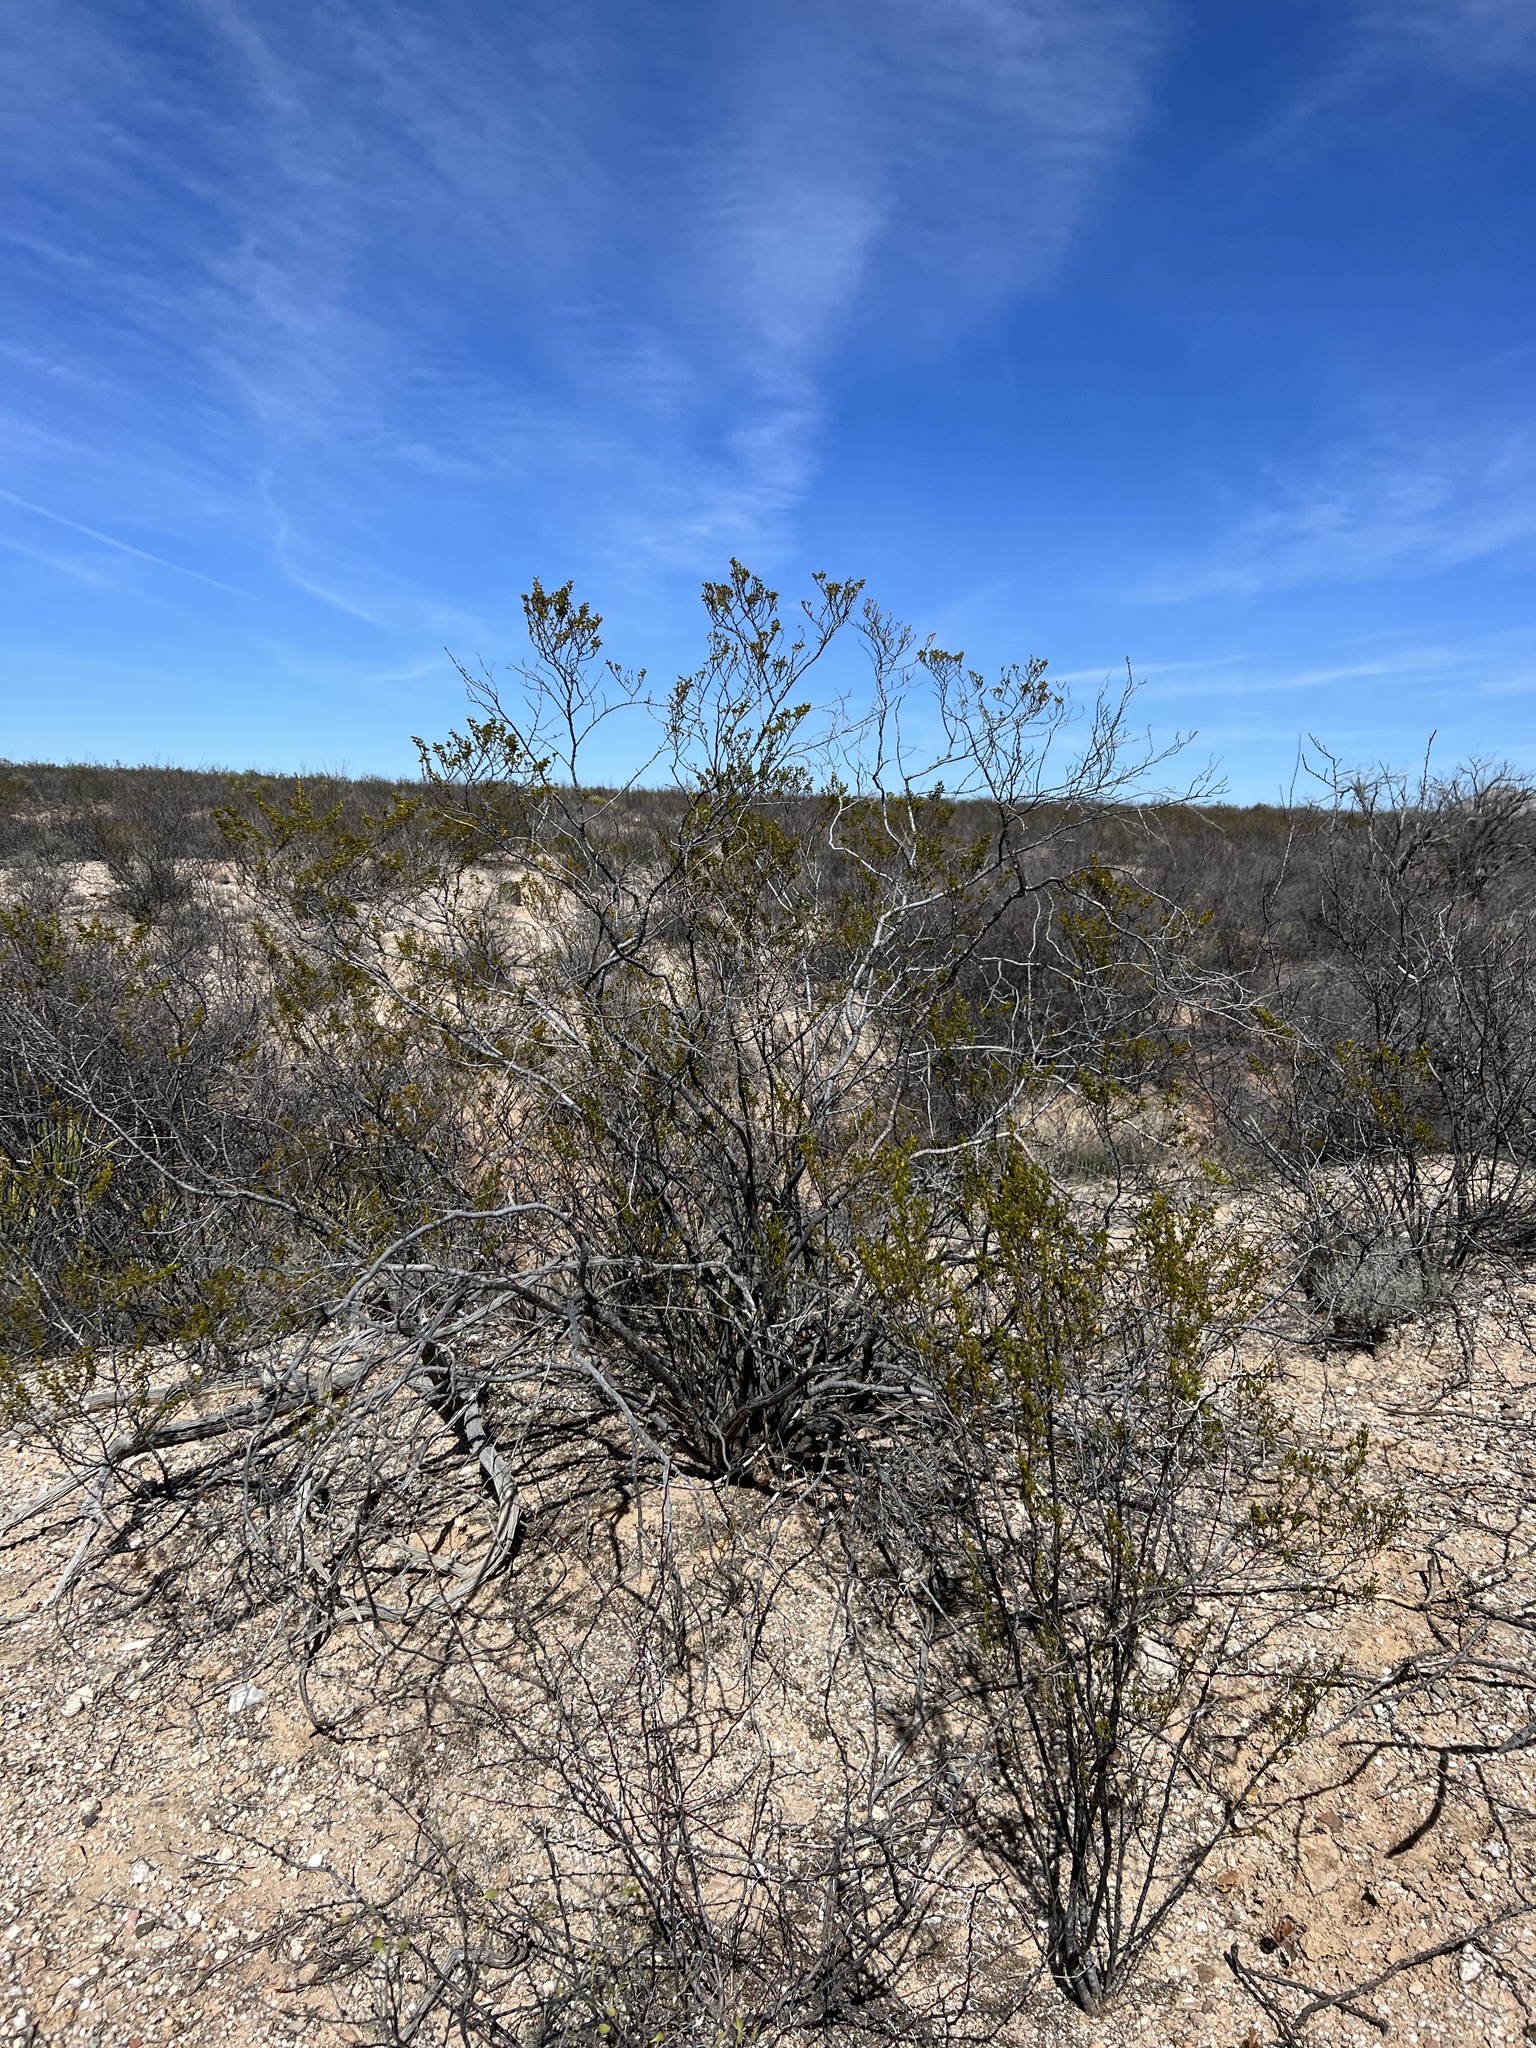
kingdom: Plantae
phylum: Tracheophyta
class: Magnoliopsida
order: Zygophyllales
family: Zygophyllaceae
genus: Larrea
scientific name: Larrea tridentata
